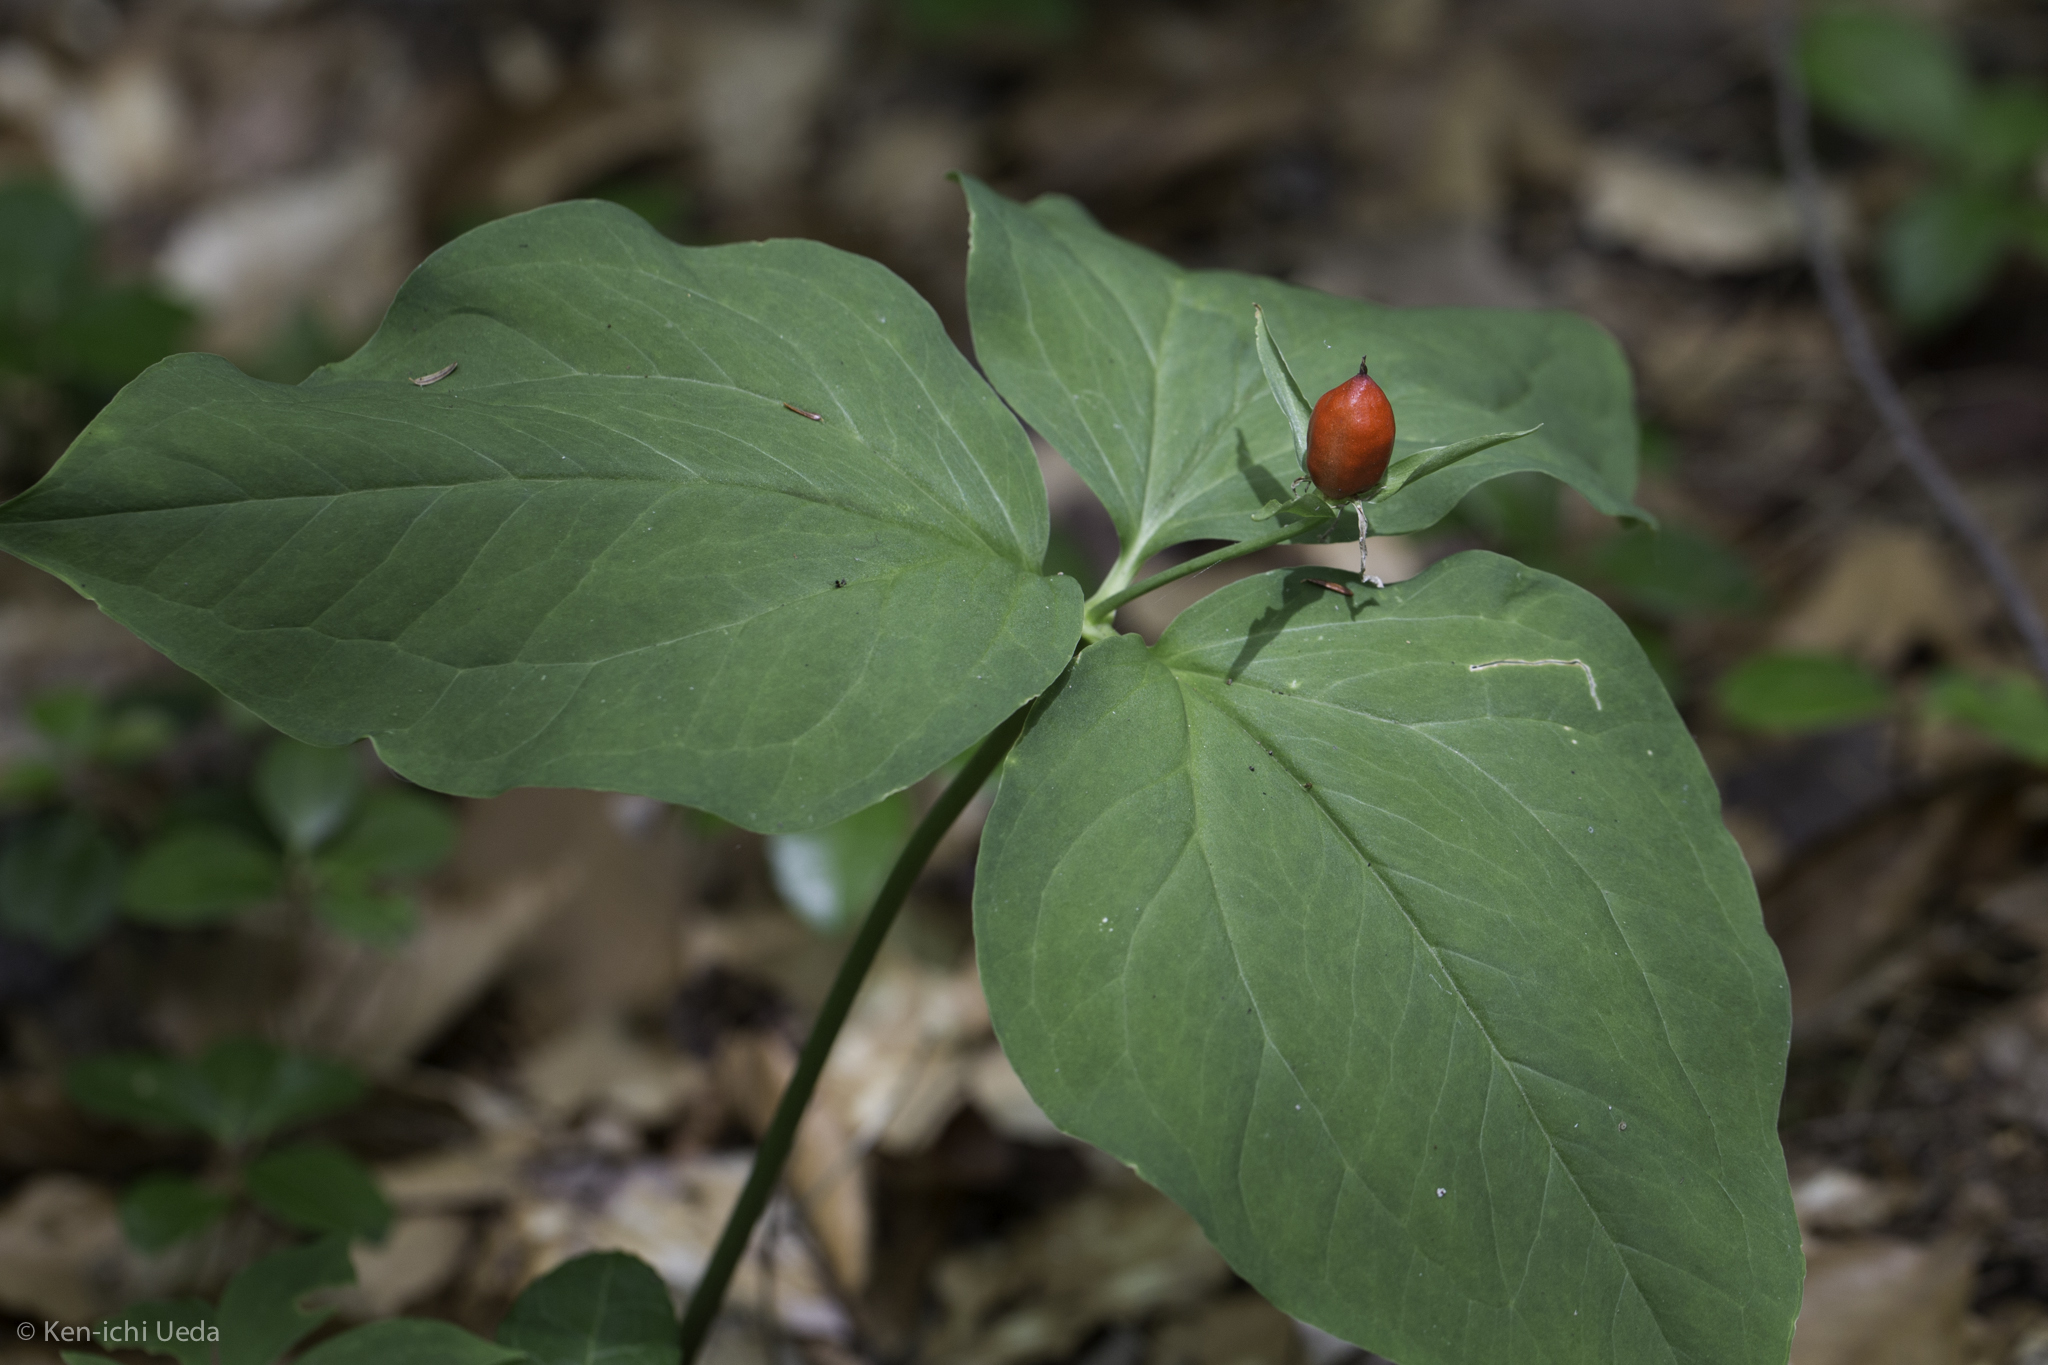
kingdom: Plantae
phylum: Tracheophyta
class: Liliopsida
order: Liliales
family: Melanthiaceae
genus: Trillium
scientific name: Trillium undulatum
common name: Paint trillium
